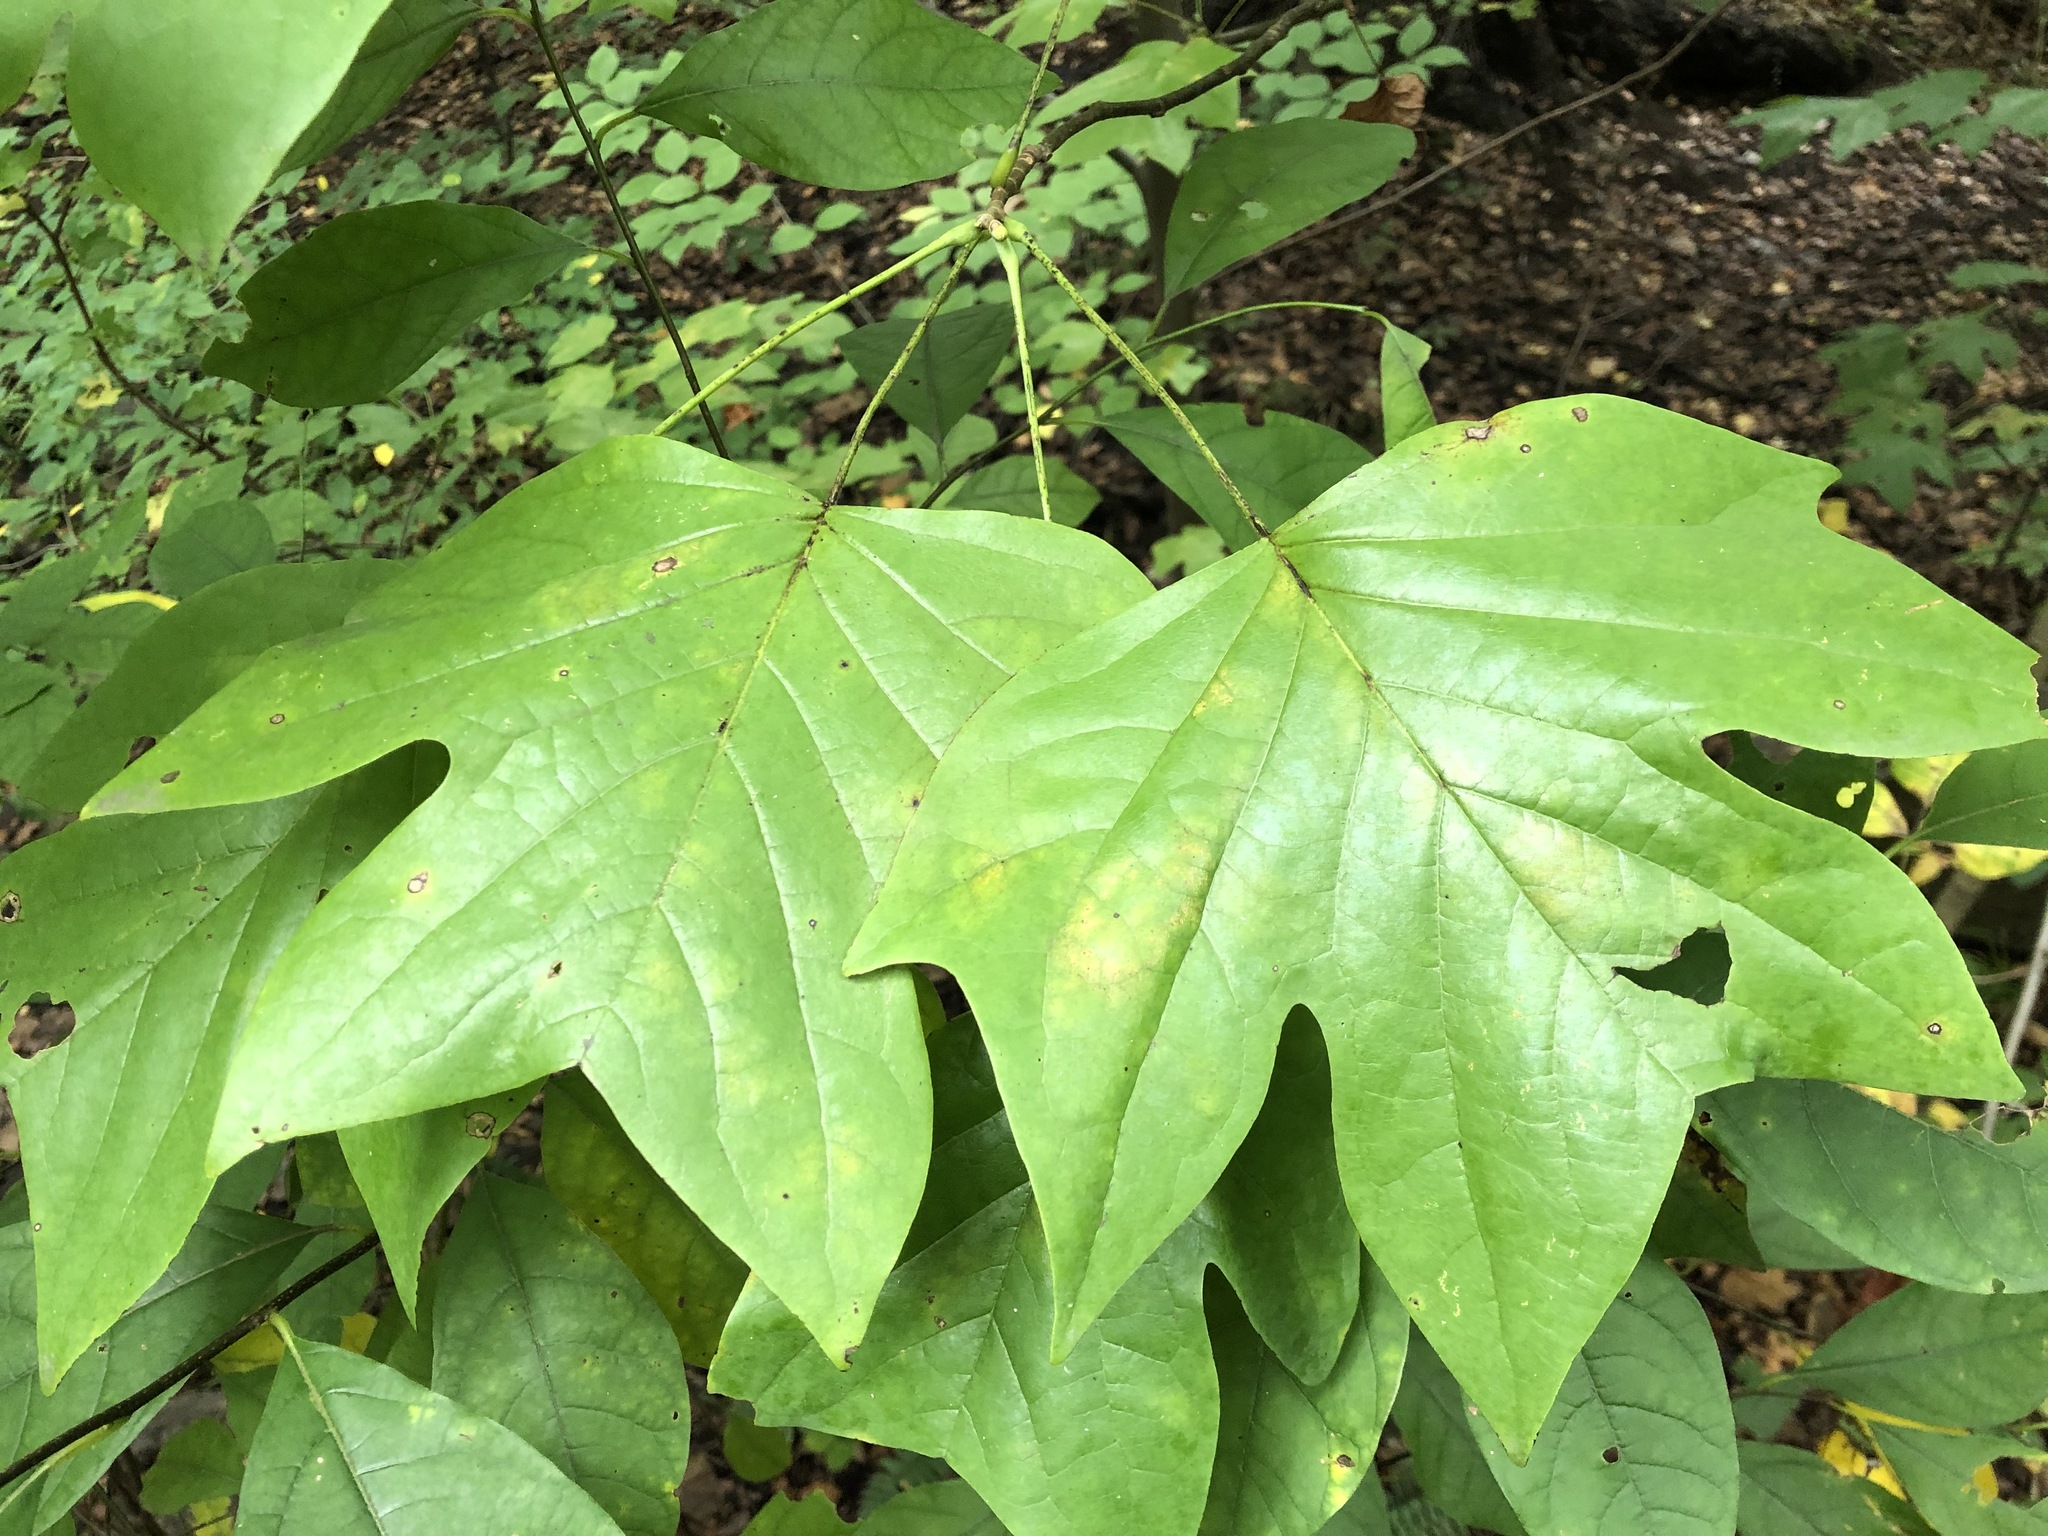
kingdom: Plantae
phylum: Tracheophyta
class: Magnoliopsida
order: Magnoliales
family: Magnoliaceae
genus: Liriodendron
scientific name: Liriodendron tulipifera
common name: Tulip tree
